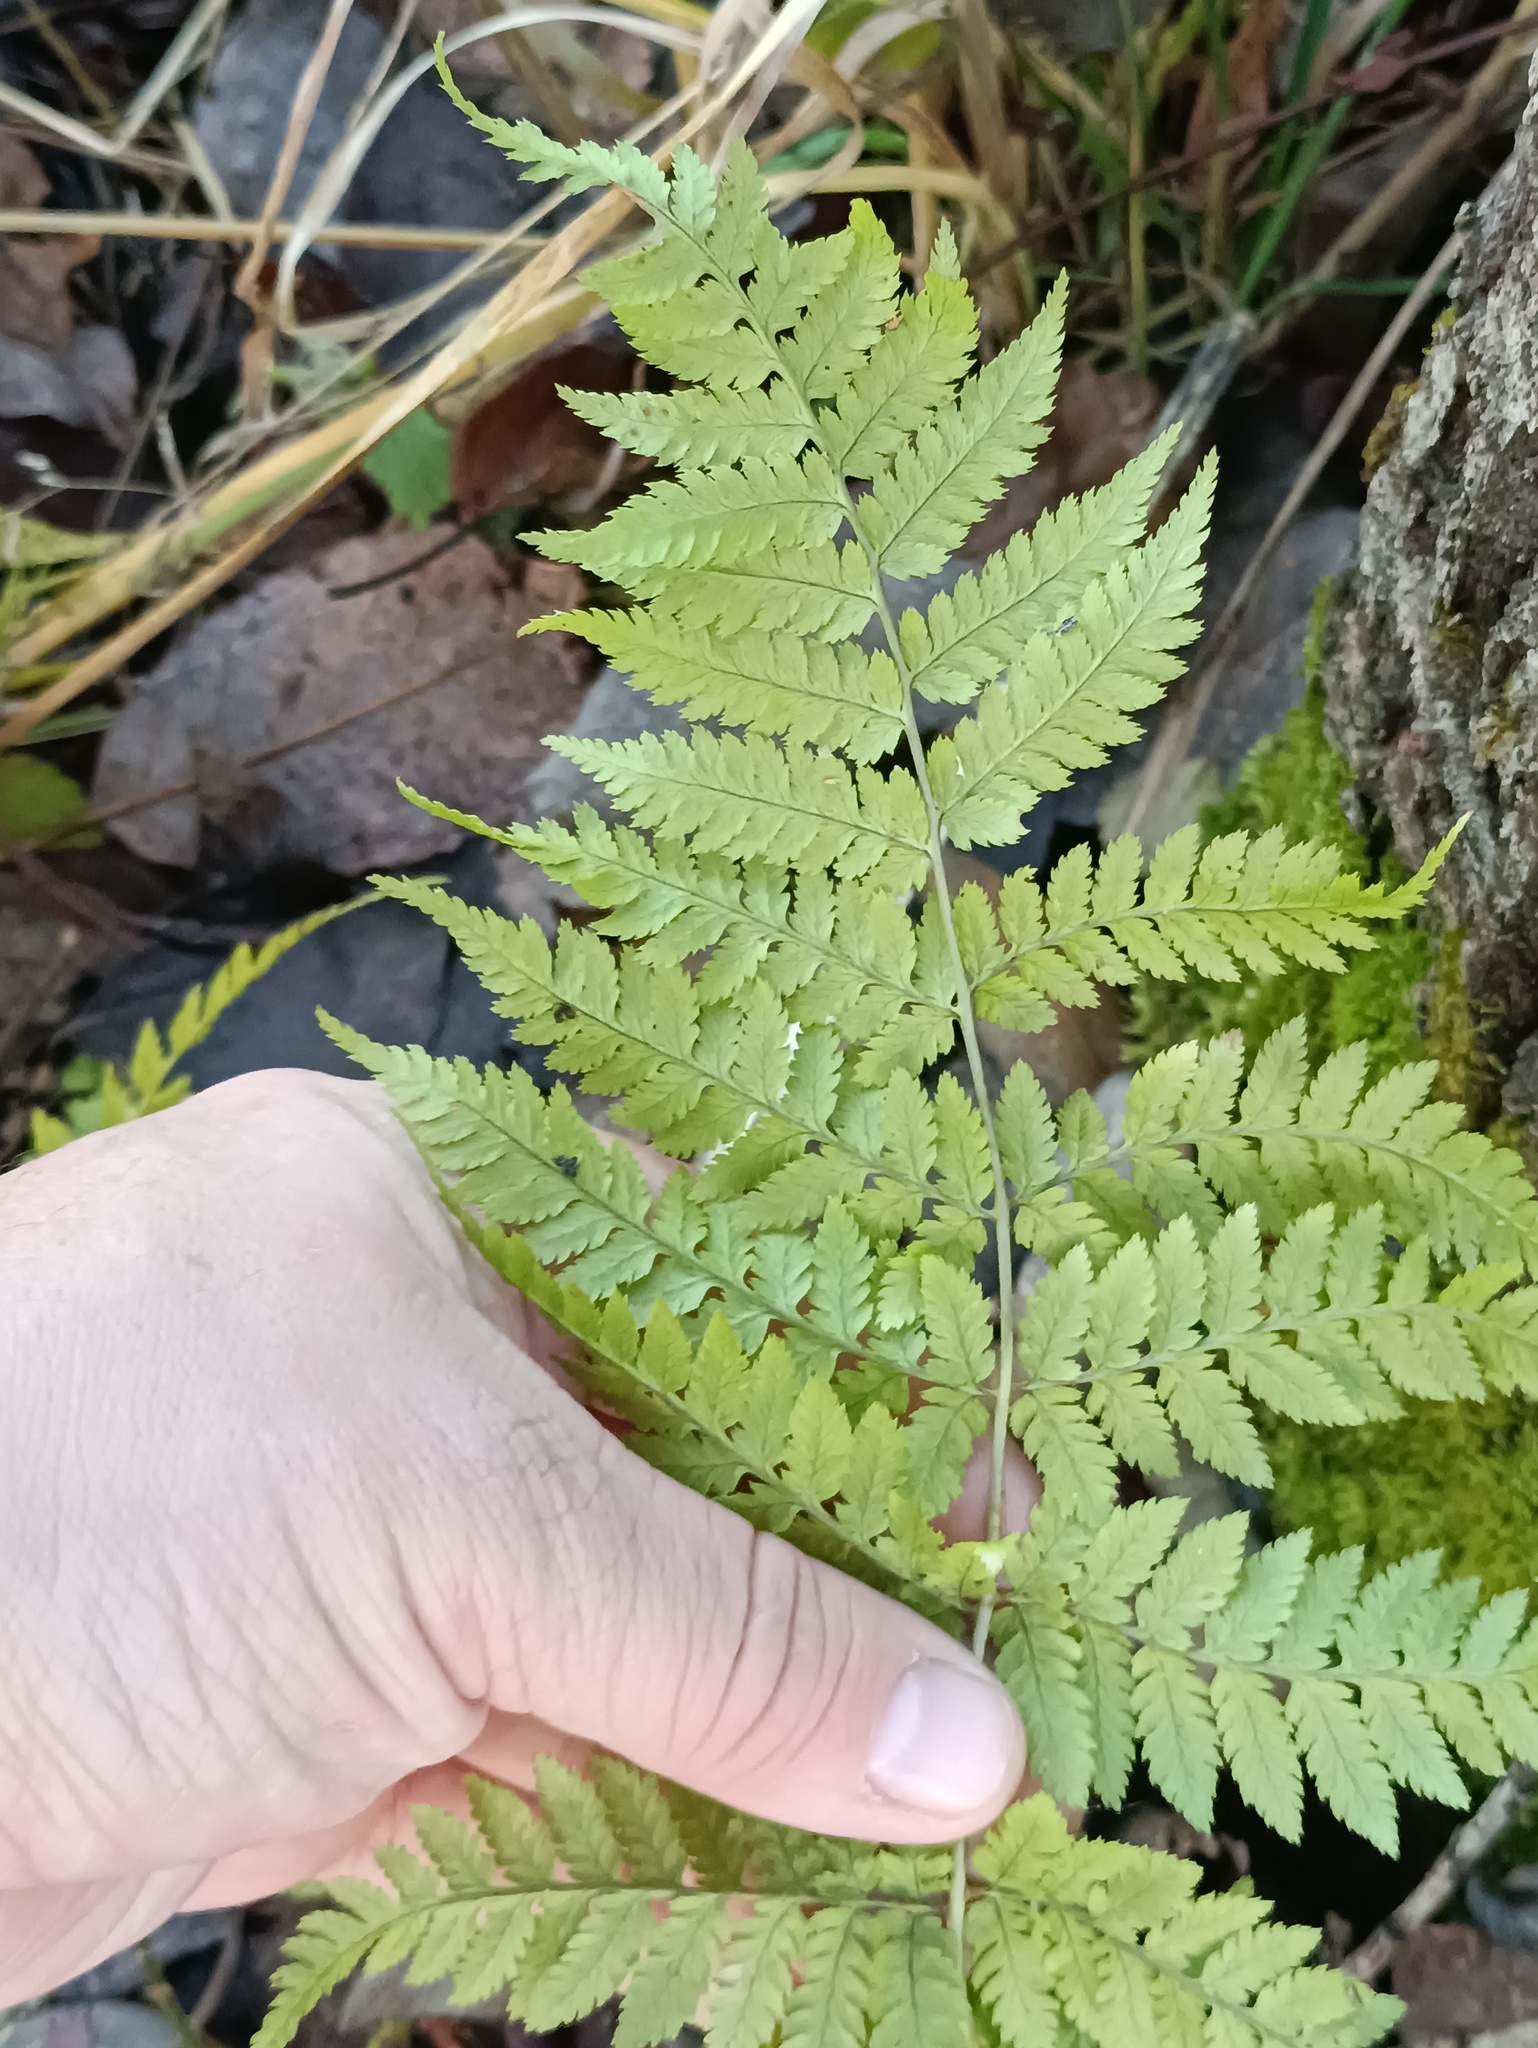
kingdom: Plantae
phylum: Tracheophyta
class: Polypodiopsida
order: Polypodiales
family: Dryopteridaceae
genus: Dryopteris
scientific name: Dryopteris carthusiana
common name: Narrow buckler-fern
